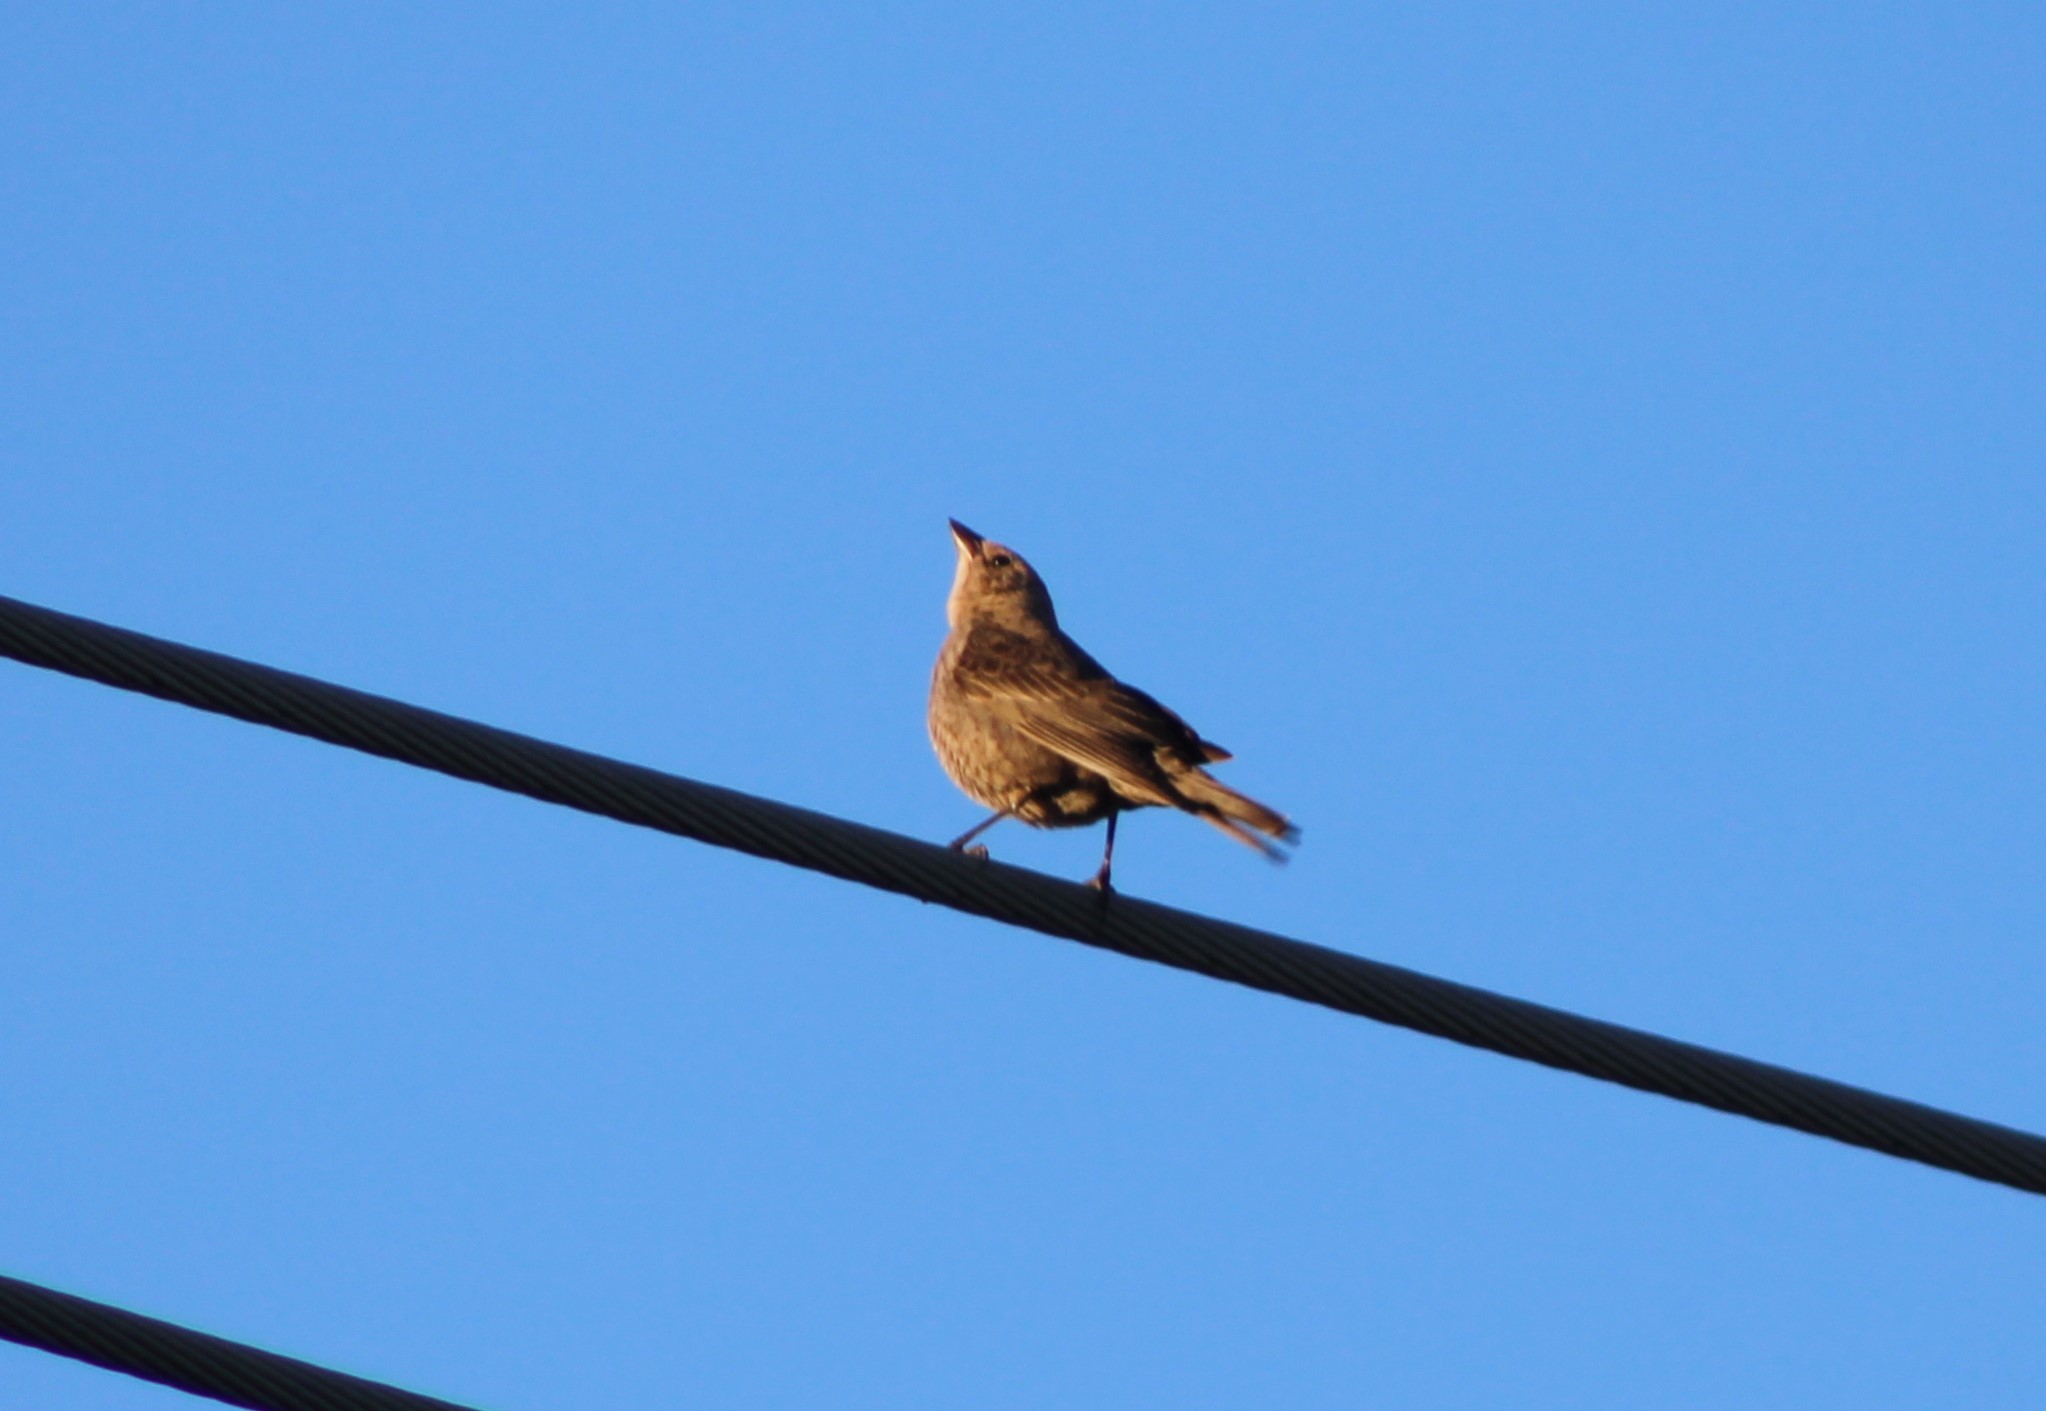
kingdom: Animalia
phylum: Chordata
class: Aves
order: Passeriformes
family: Icteridae
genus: Molothrus
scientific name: Molothrus ater
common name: Brown-headed cowbird
